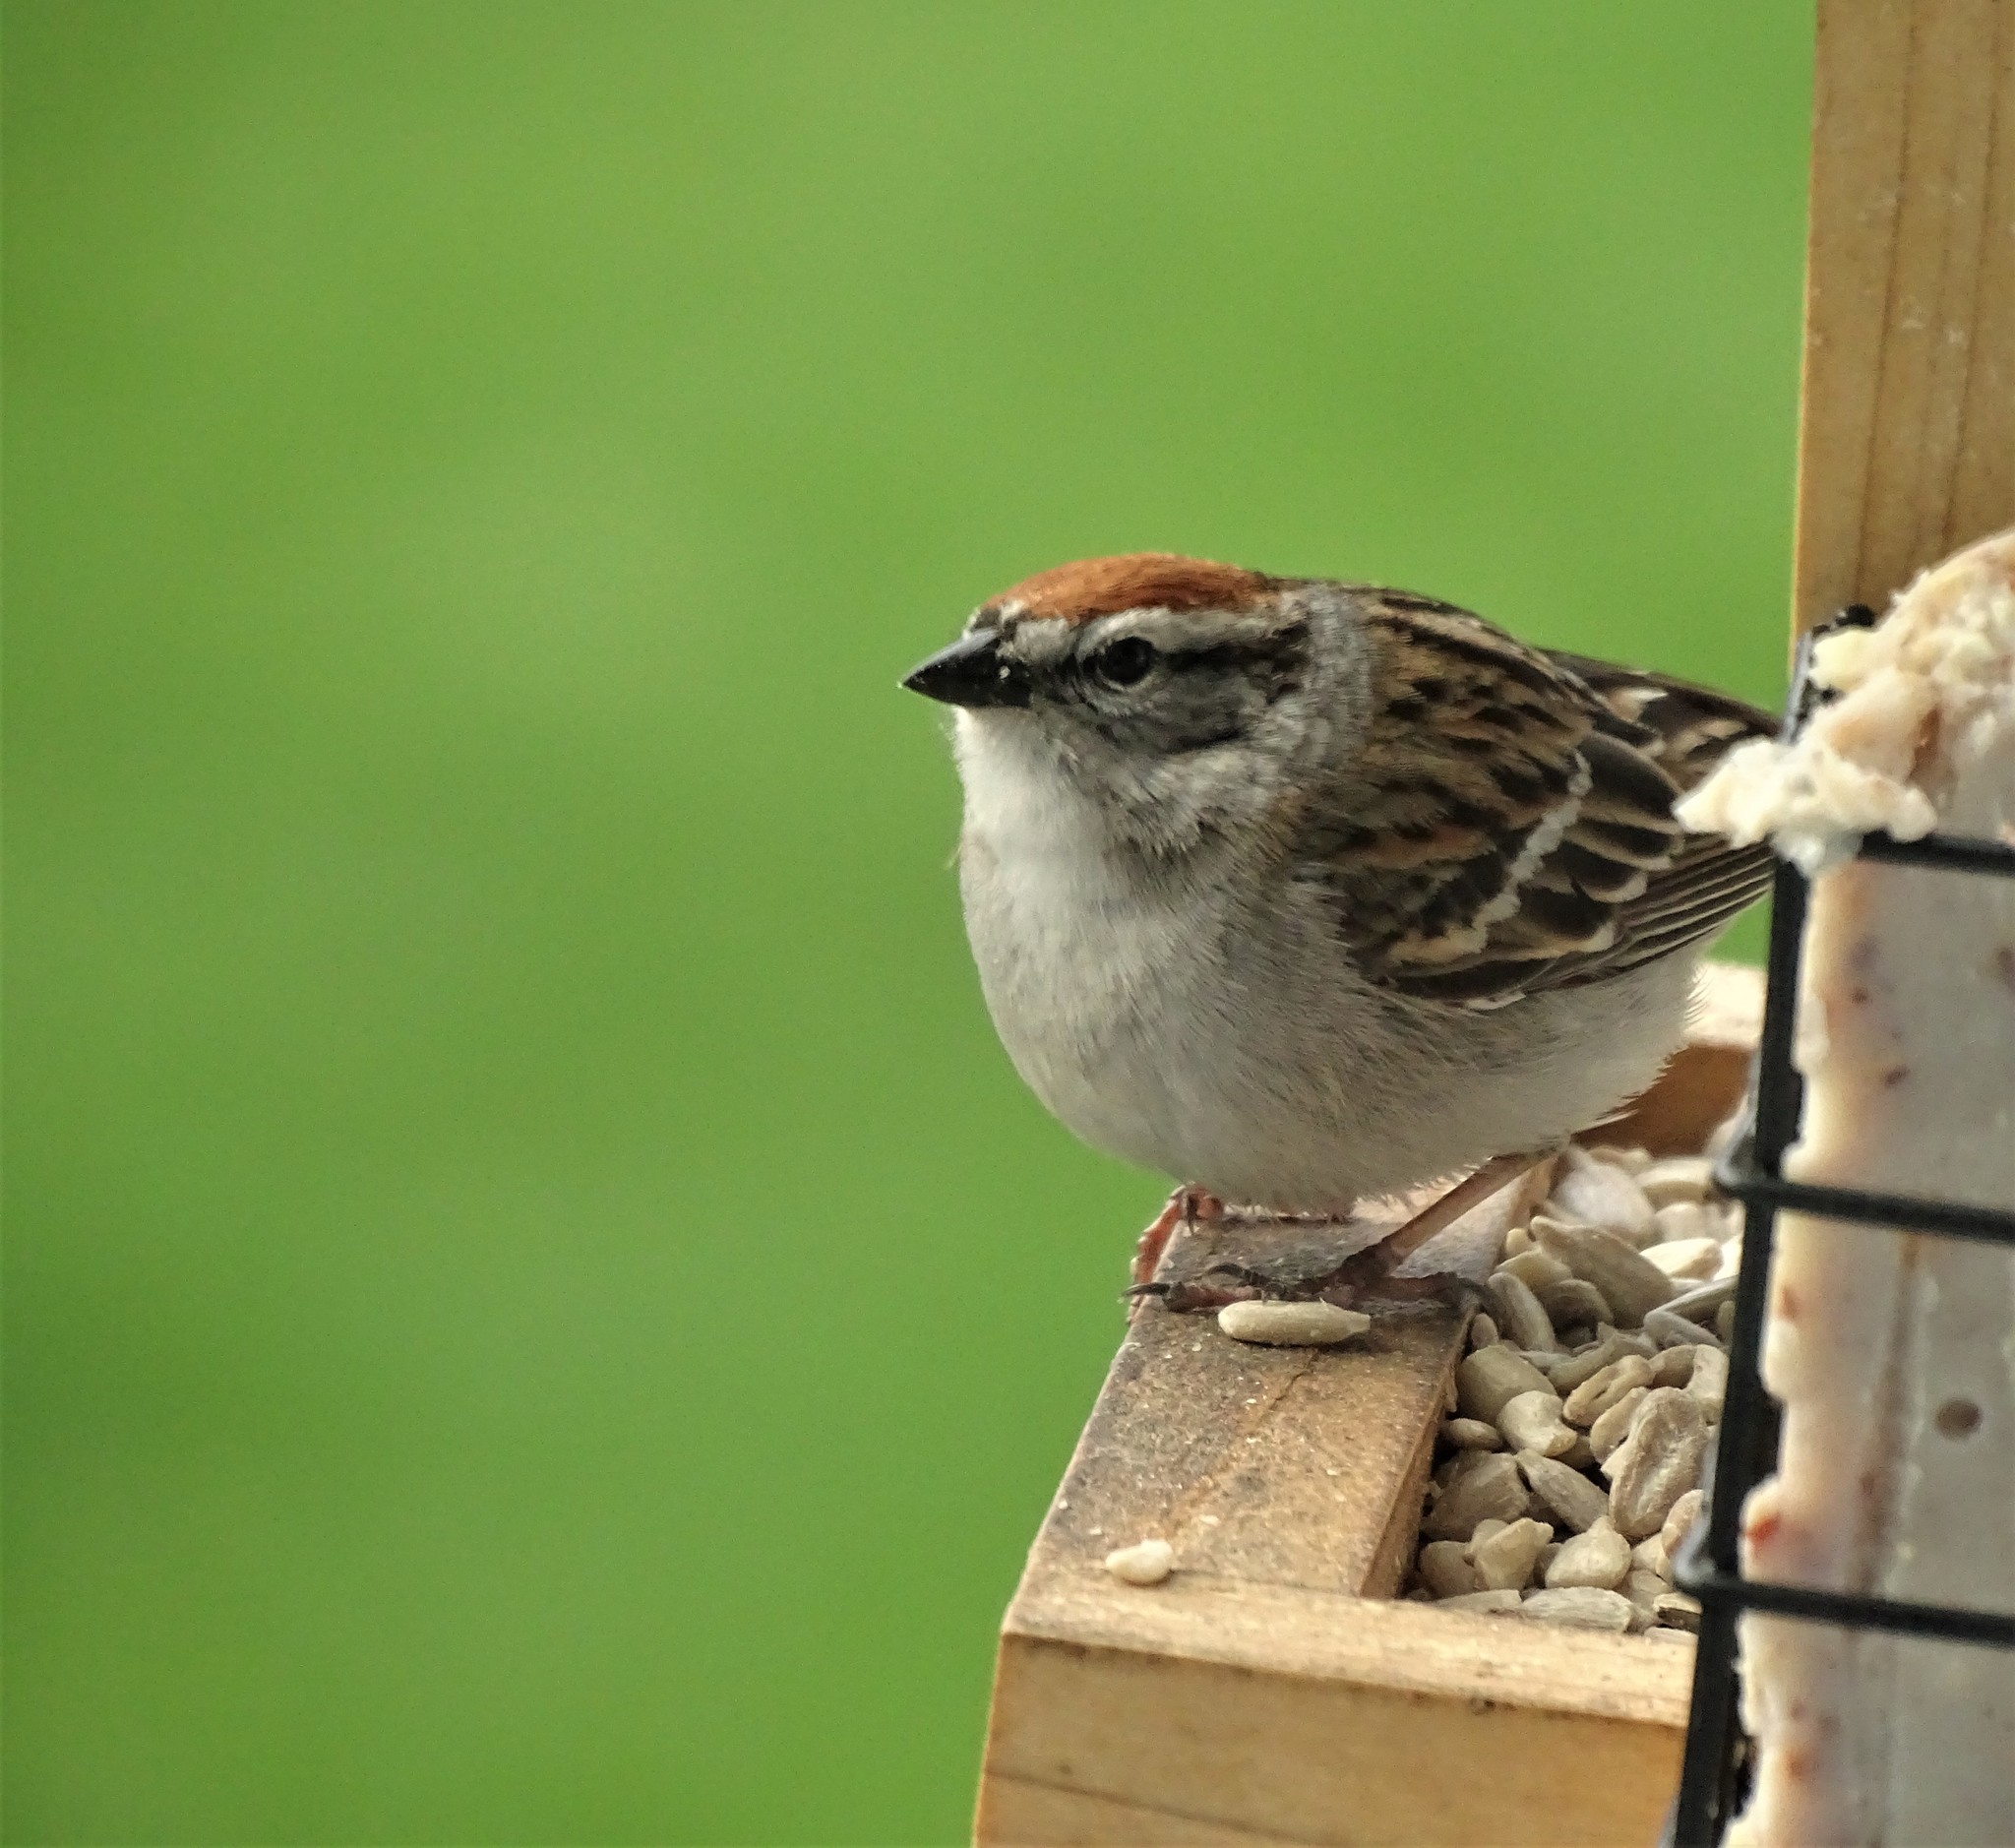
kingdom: Animalia
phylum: Chordata
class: Aves
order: Passeriformes
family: Passerellidae
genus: Spizella
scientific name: Spizella passerina
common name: Chipping sparrow
